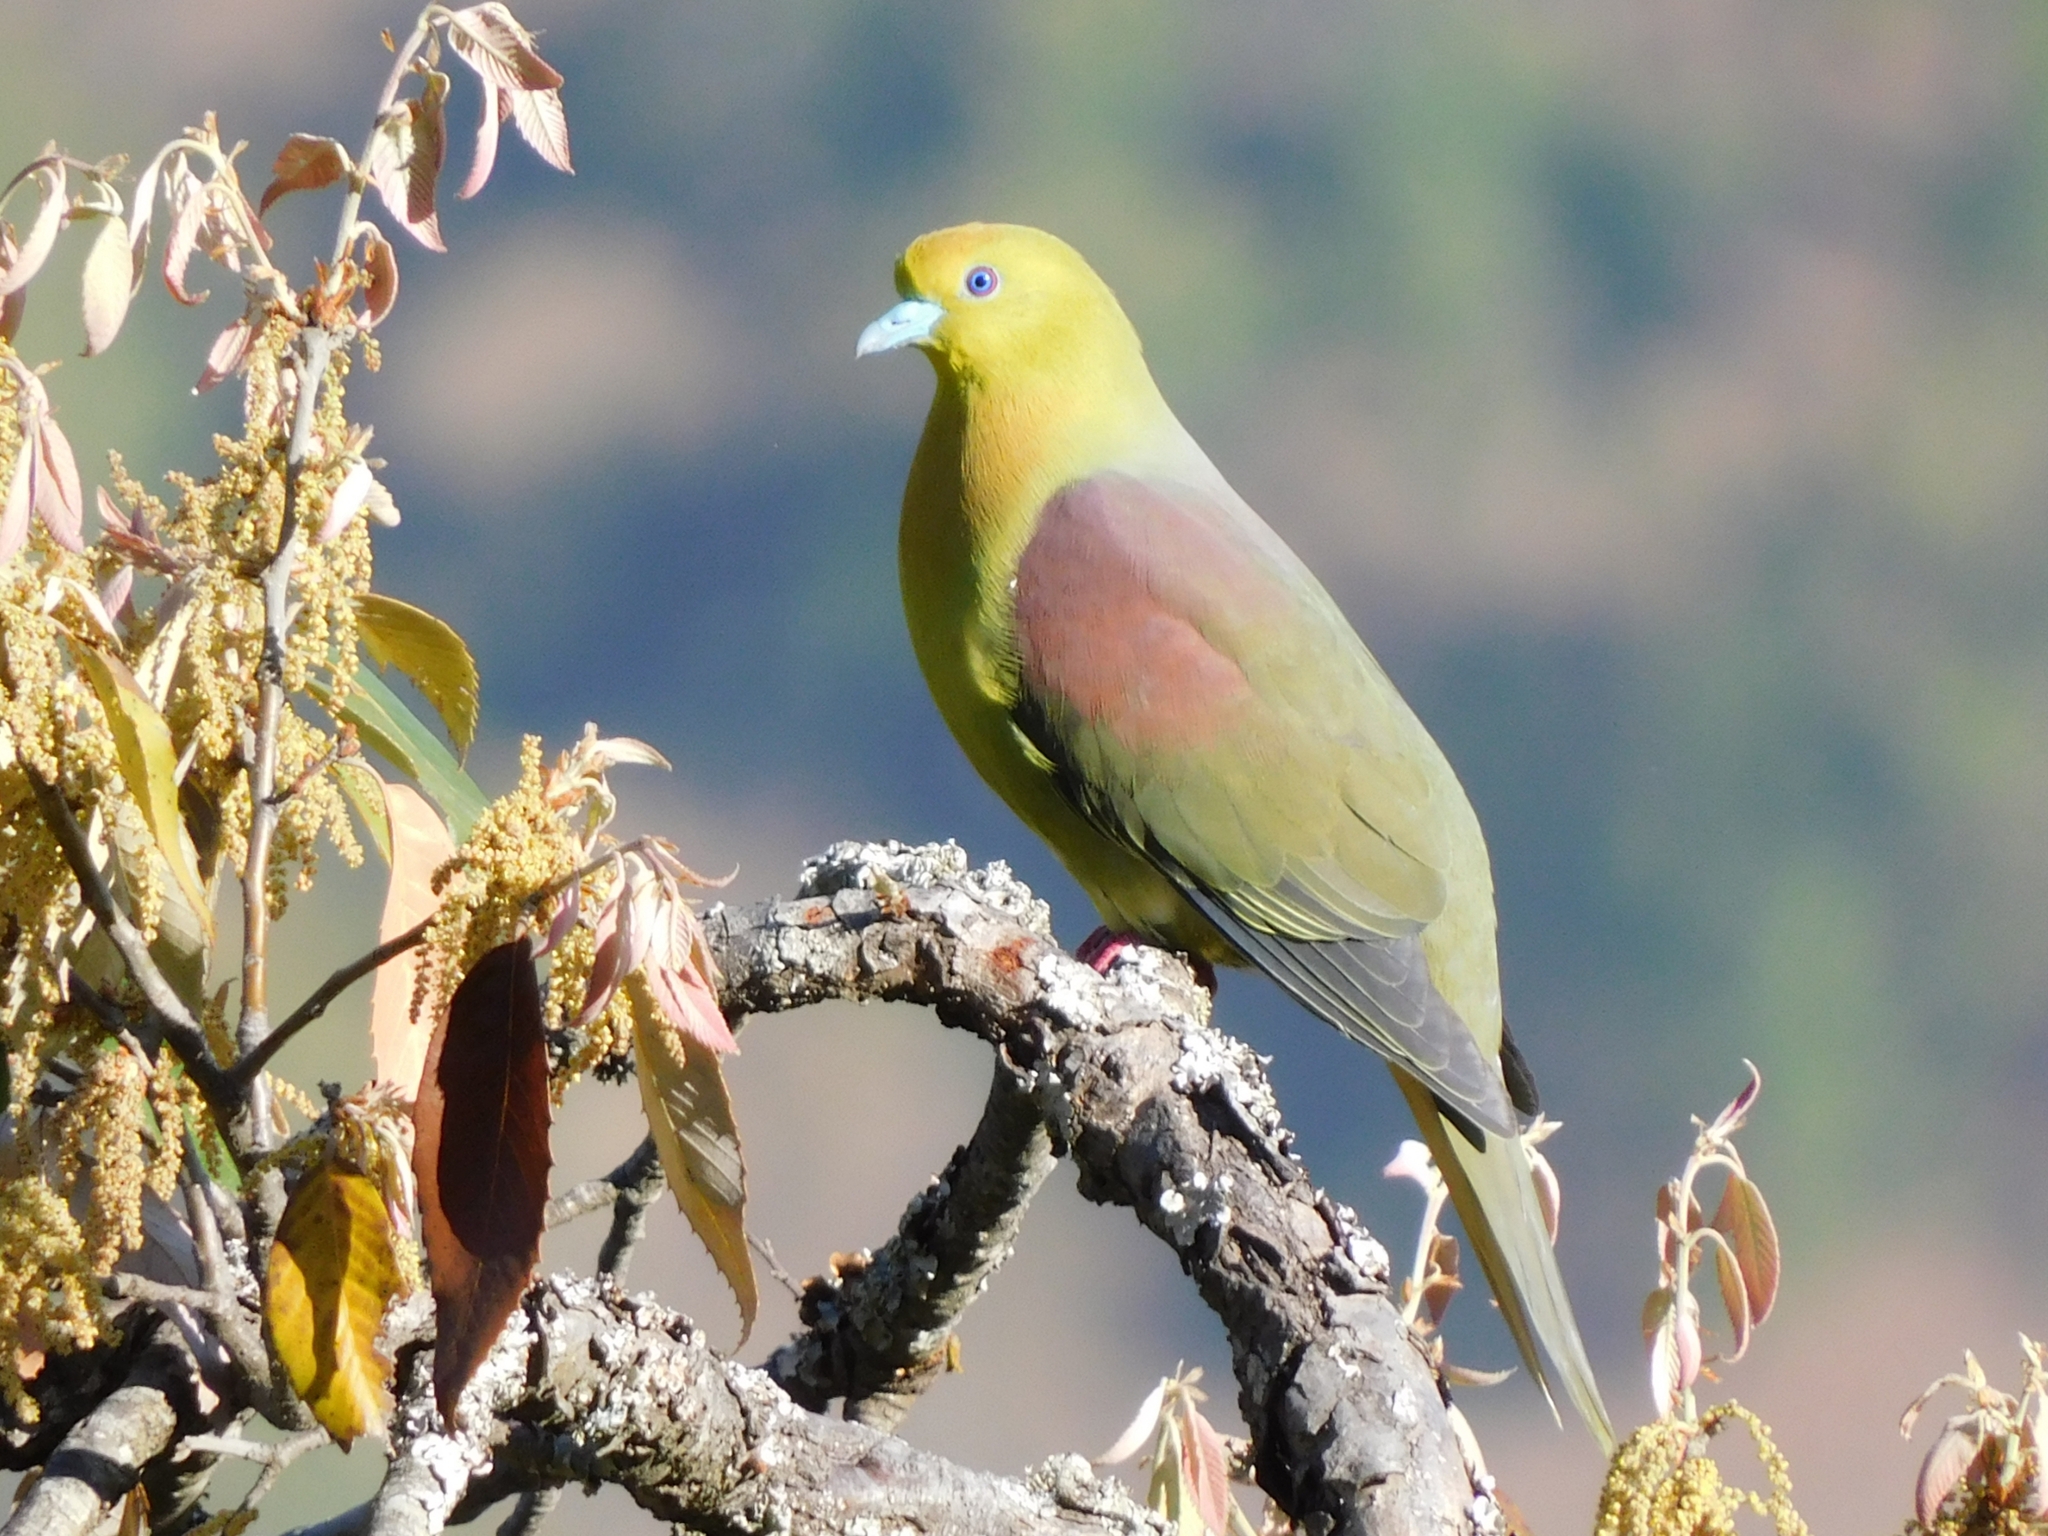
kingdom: Animalia
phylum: Chordata
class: Aves
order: Columbiformes
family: Columbidae
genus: Treron
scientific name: Treron sphenurus
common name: Wedge-tailed green pigeon
